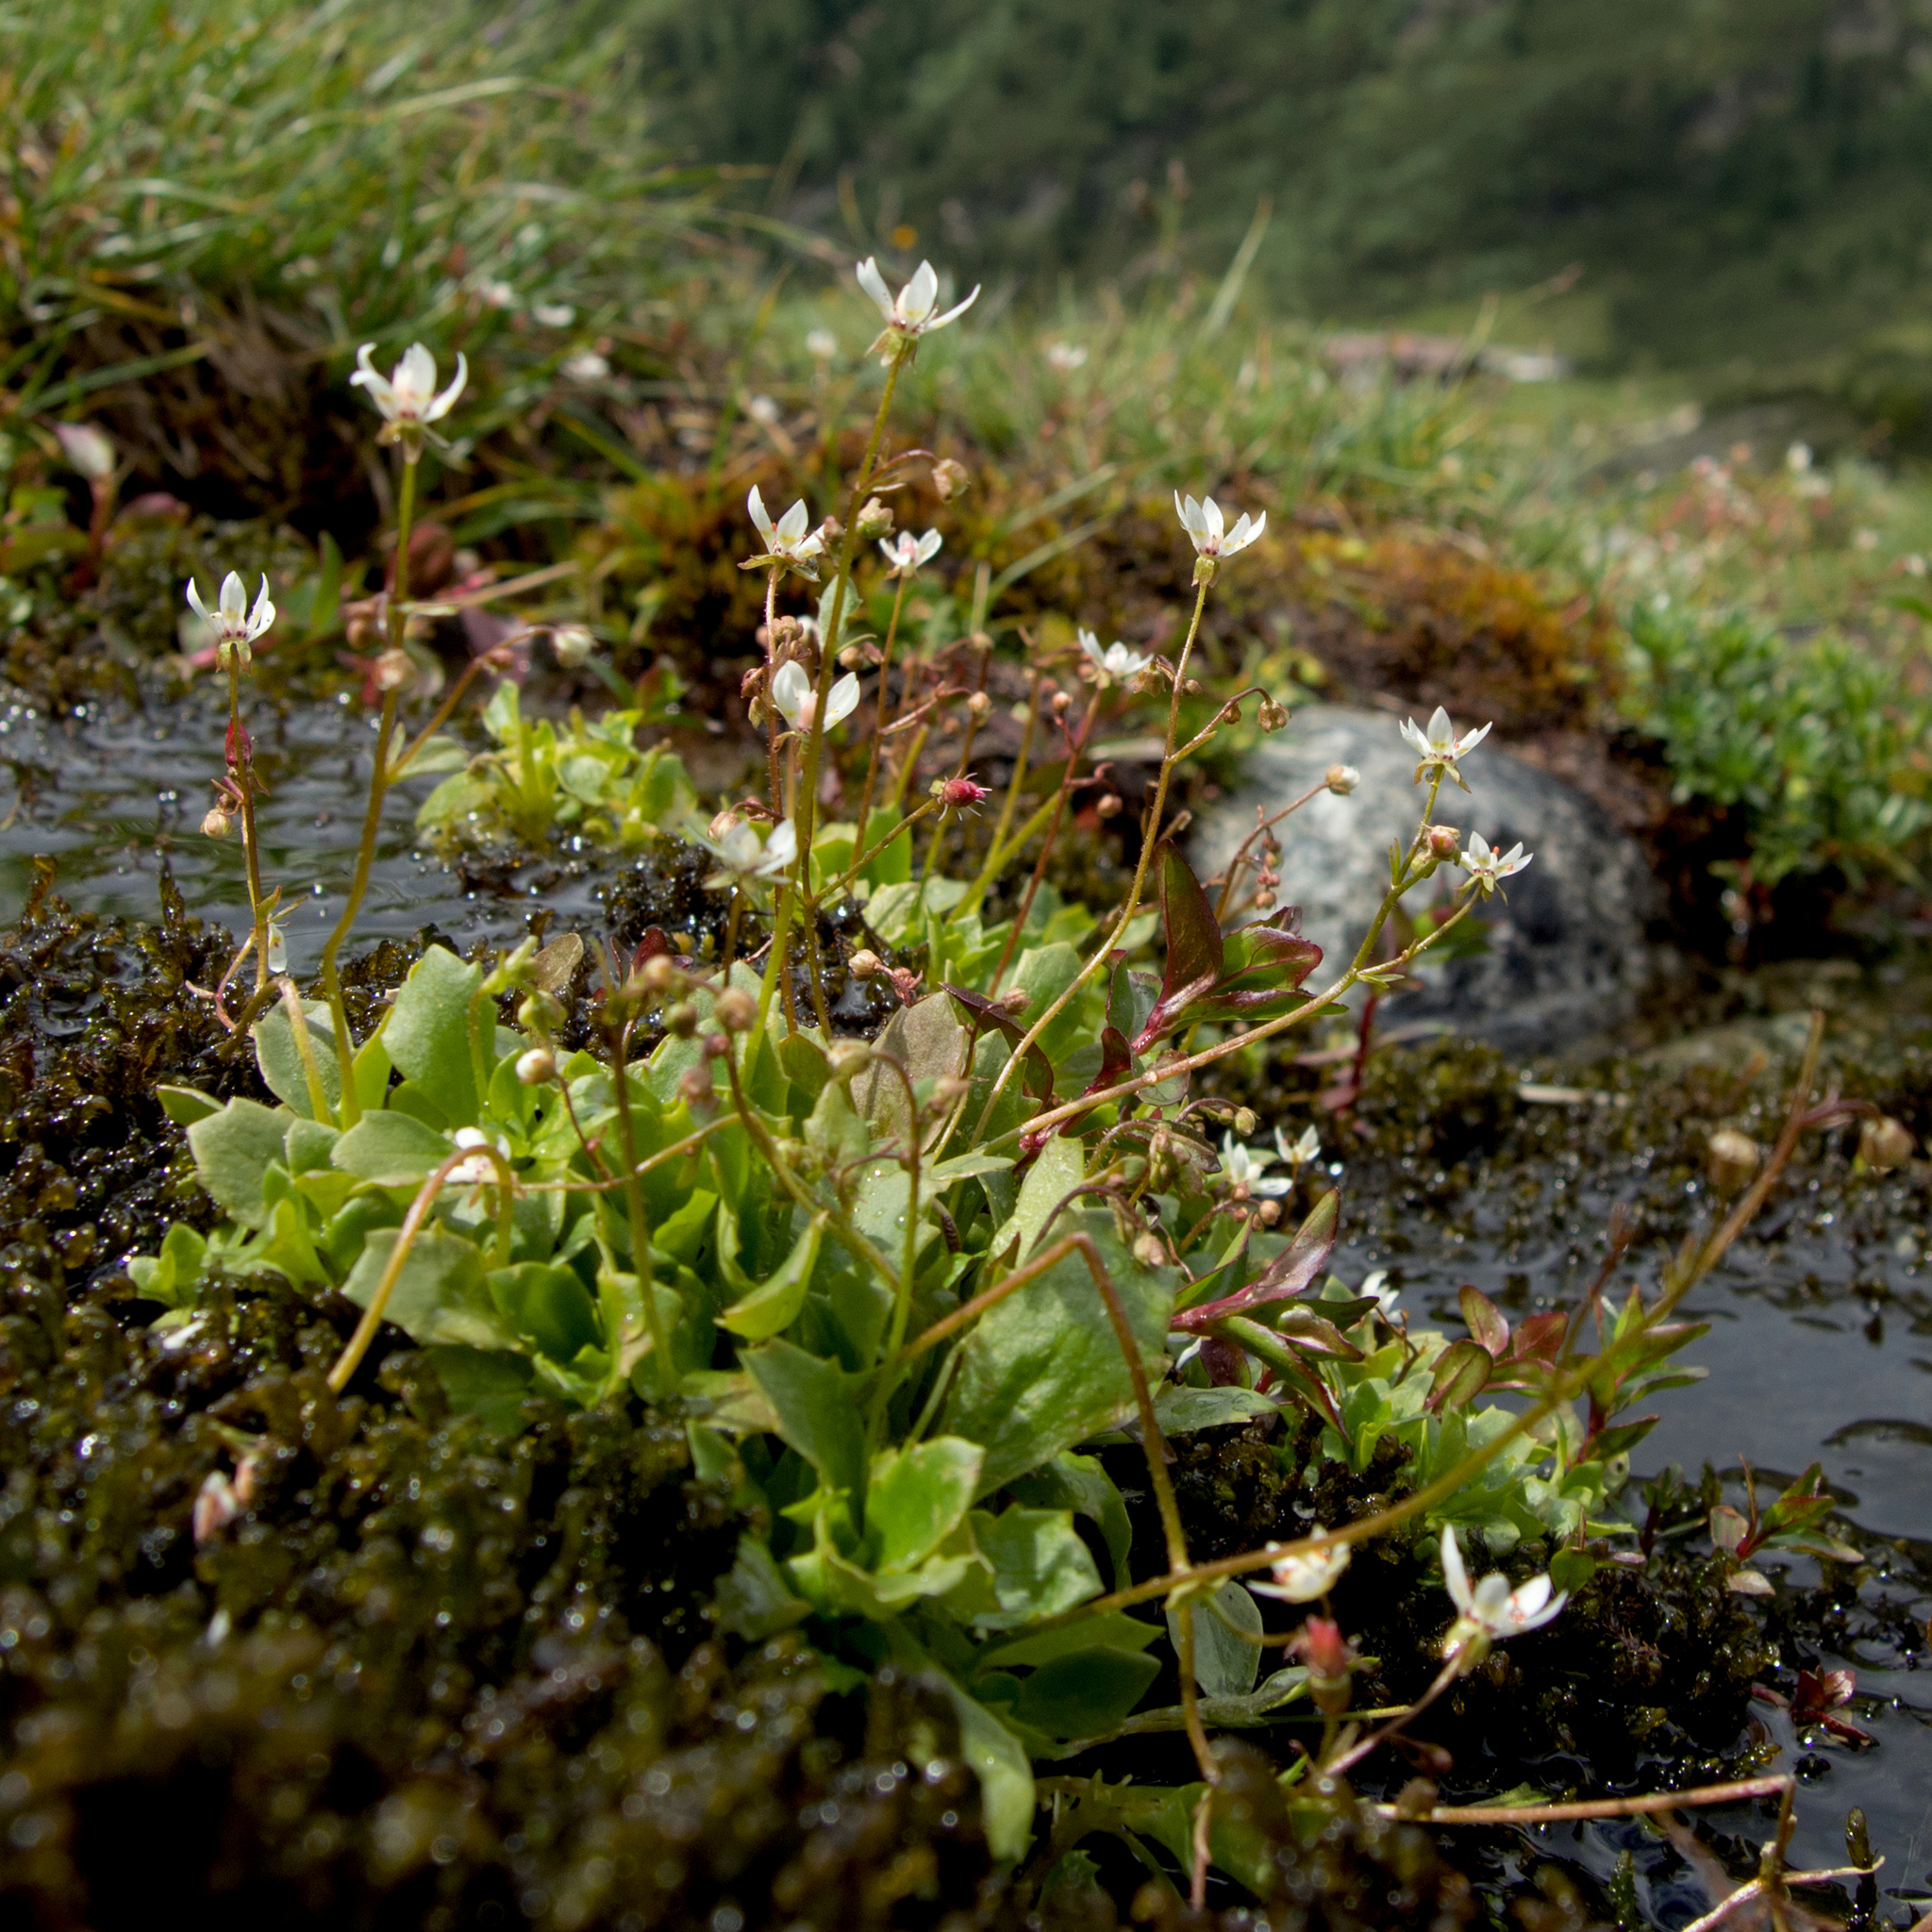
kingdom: Plantae
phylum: Tracheophyta
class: Magnoliopsida
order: Saxifragales
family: Saxifragaceae
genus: Micranthes
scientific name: Micranthes stellaris
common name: Starry saxifrage
